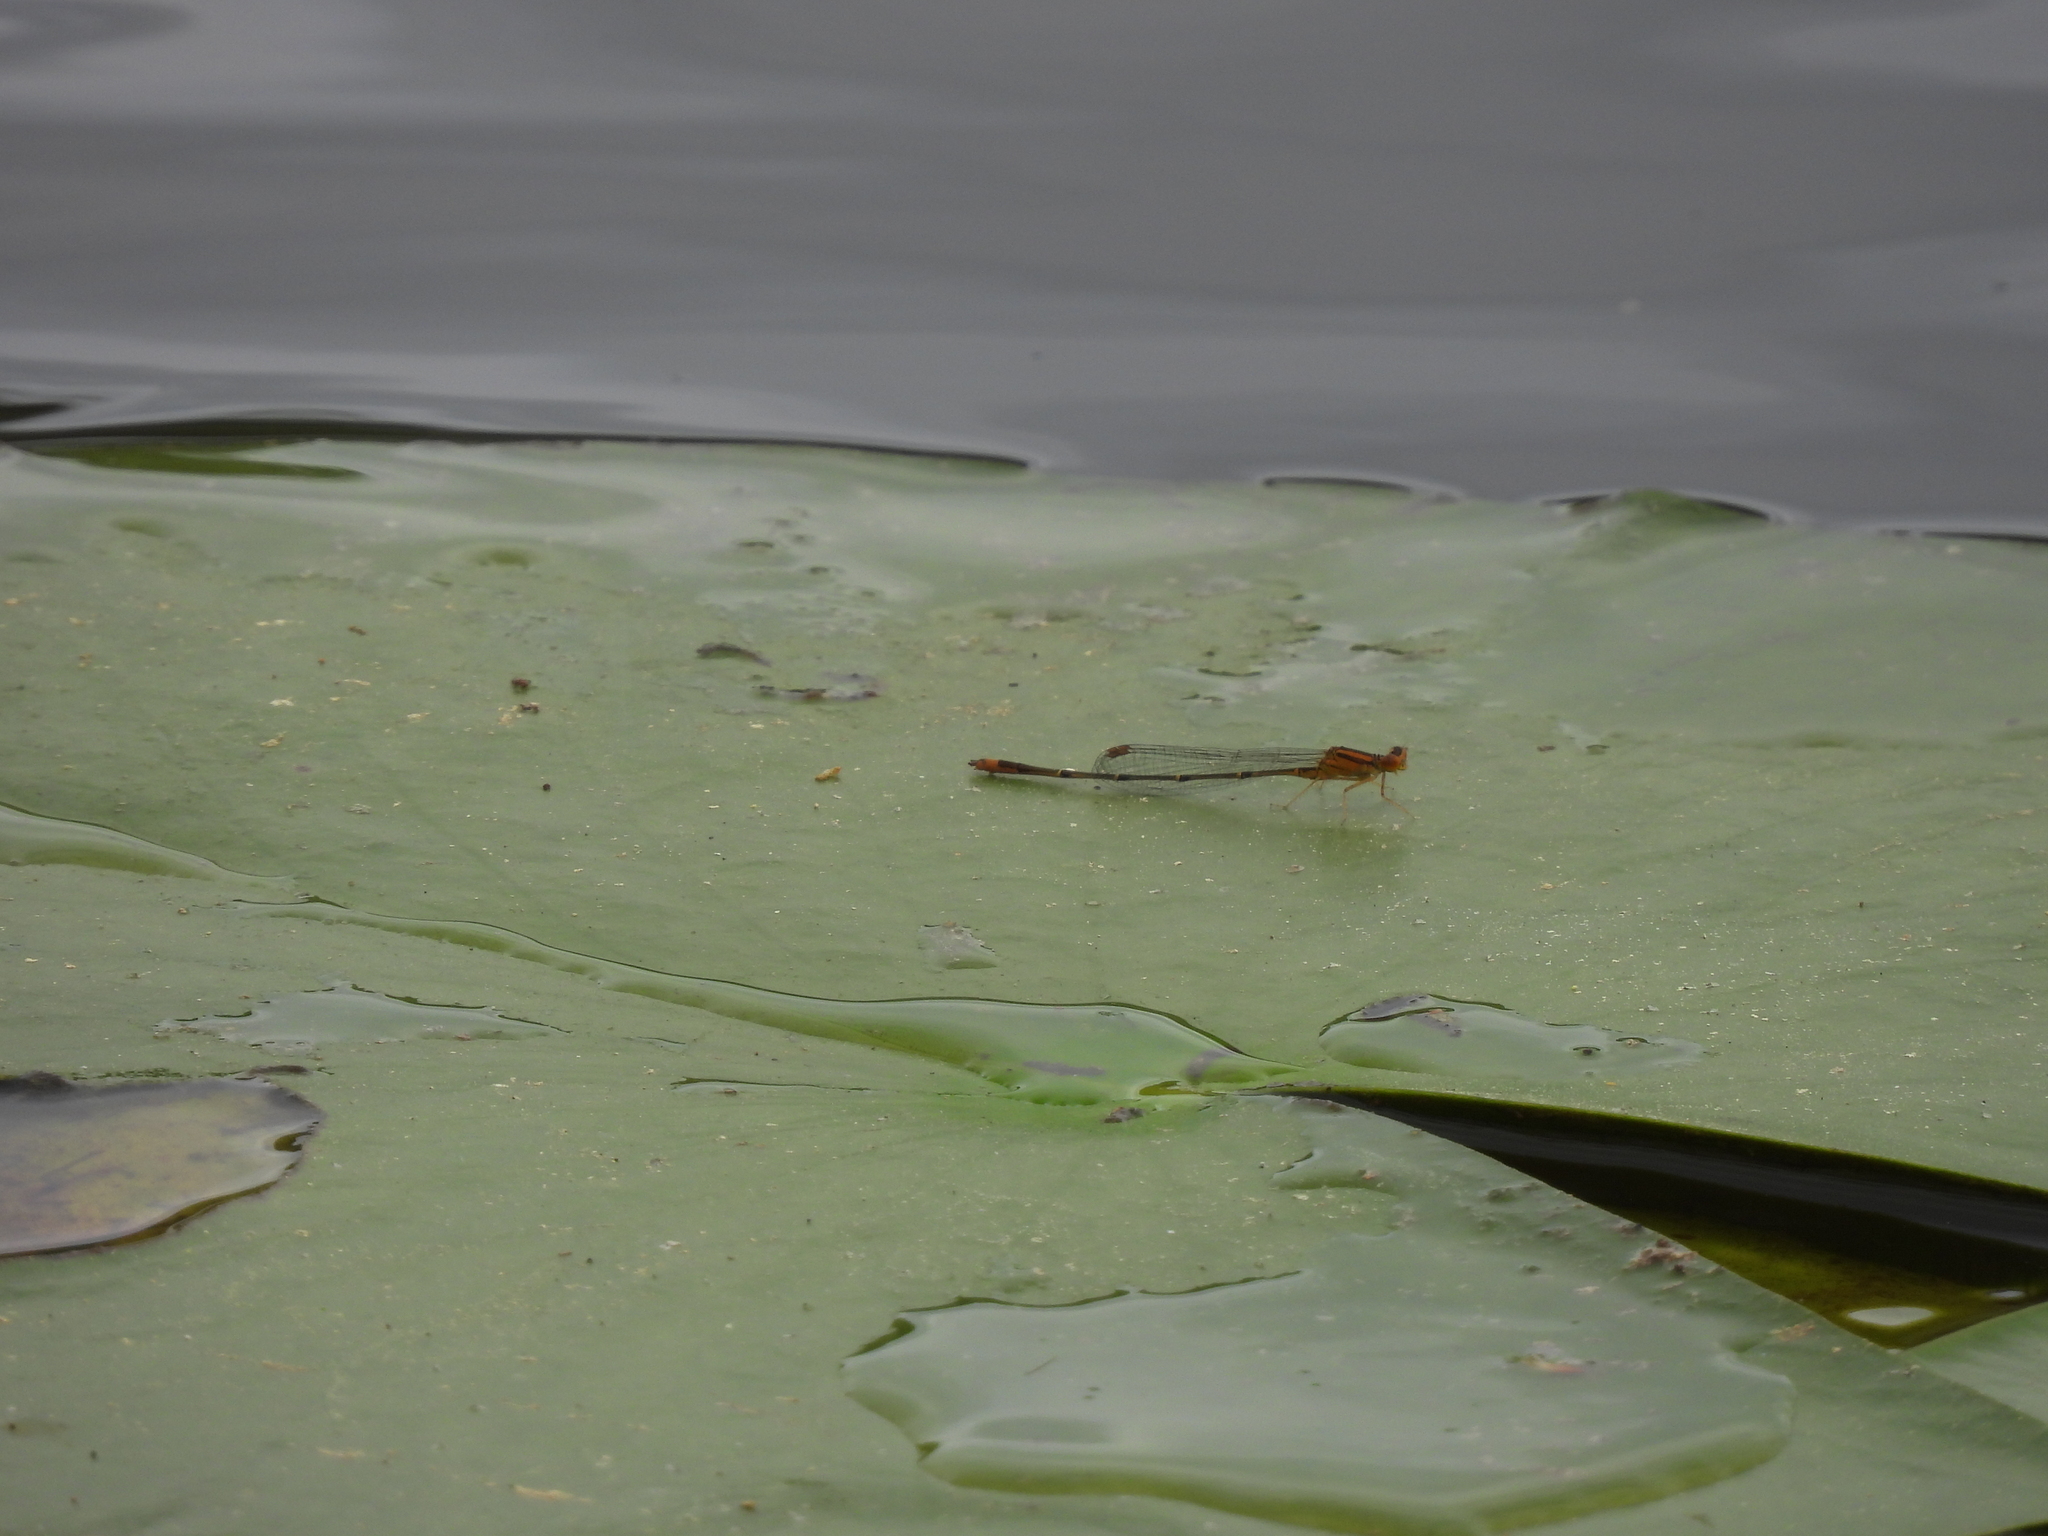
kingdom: Animalia
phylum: Arthropoda
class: Insecta
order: Odonata
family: Coenagrionidae
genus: Enallagma
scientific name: Enallagma signatum
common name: Orange bluet
